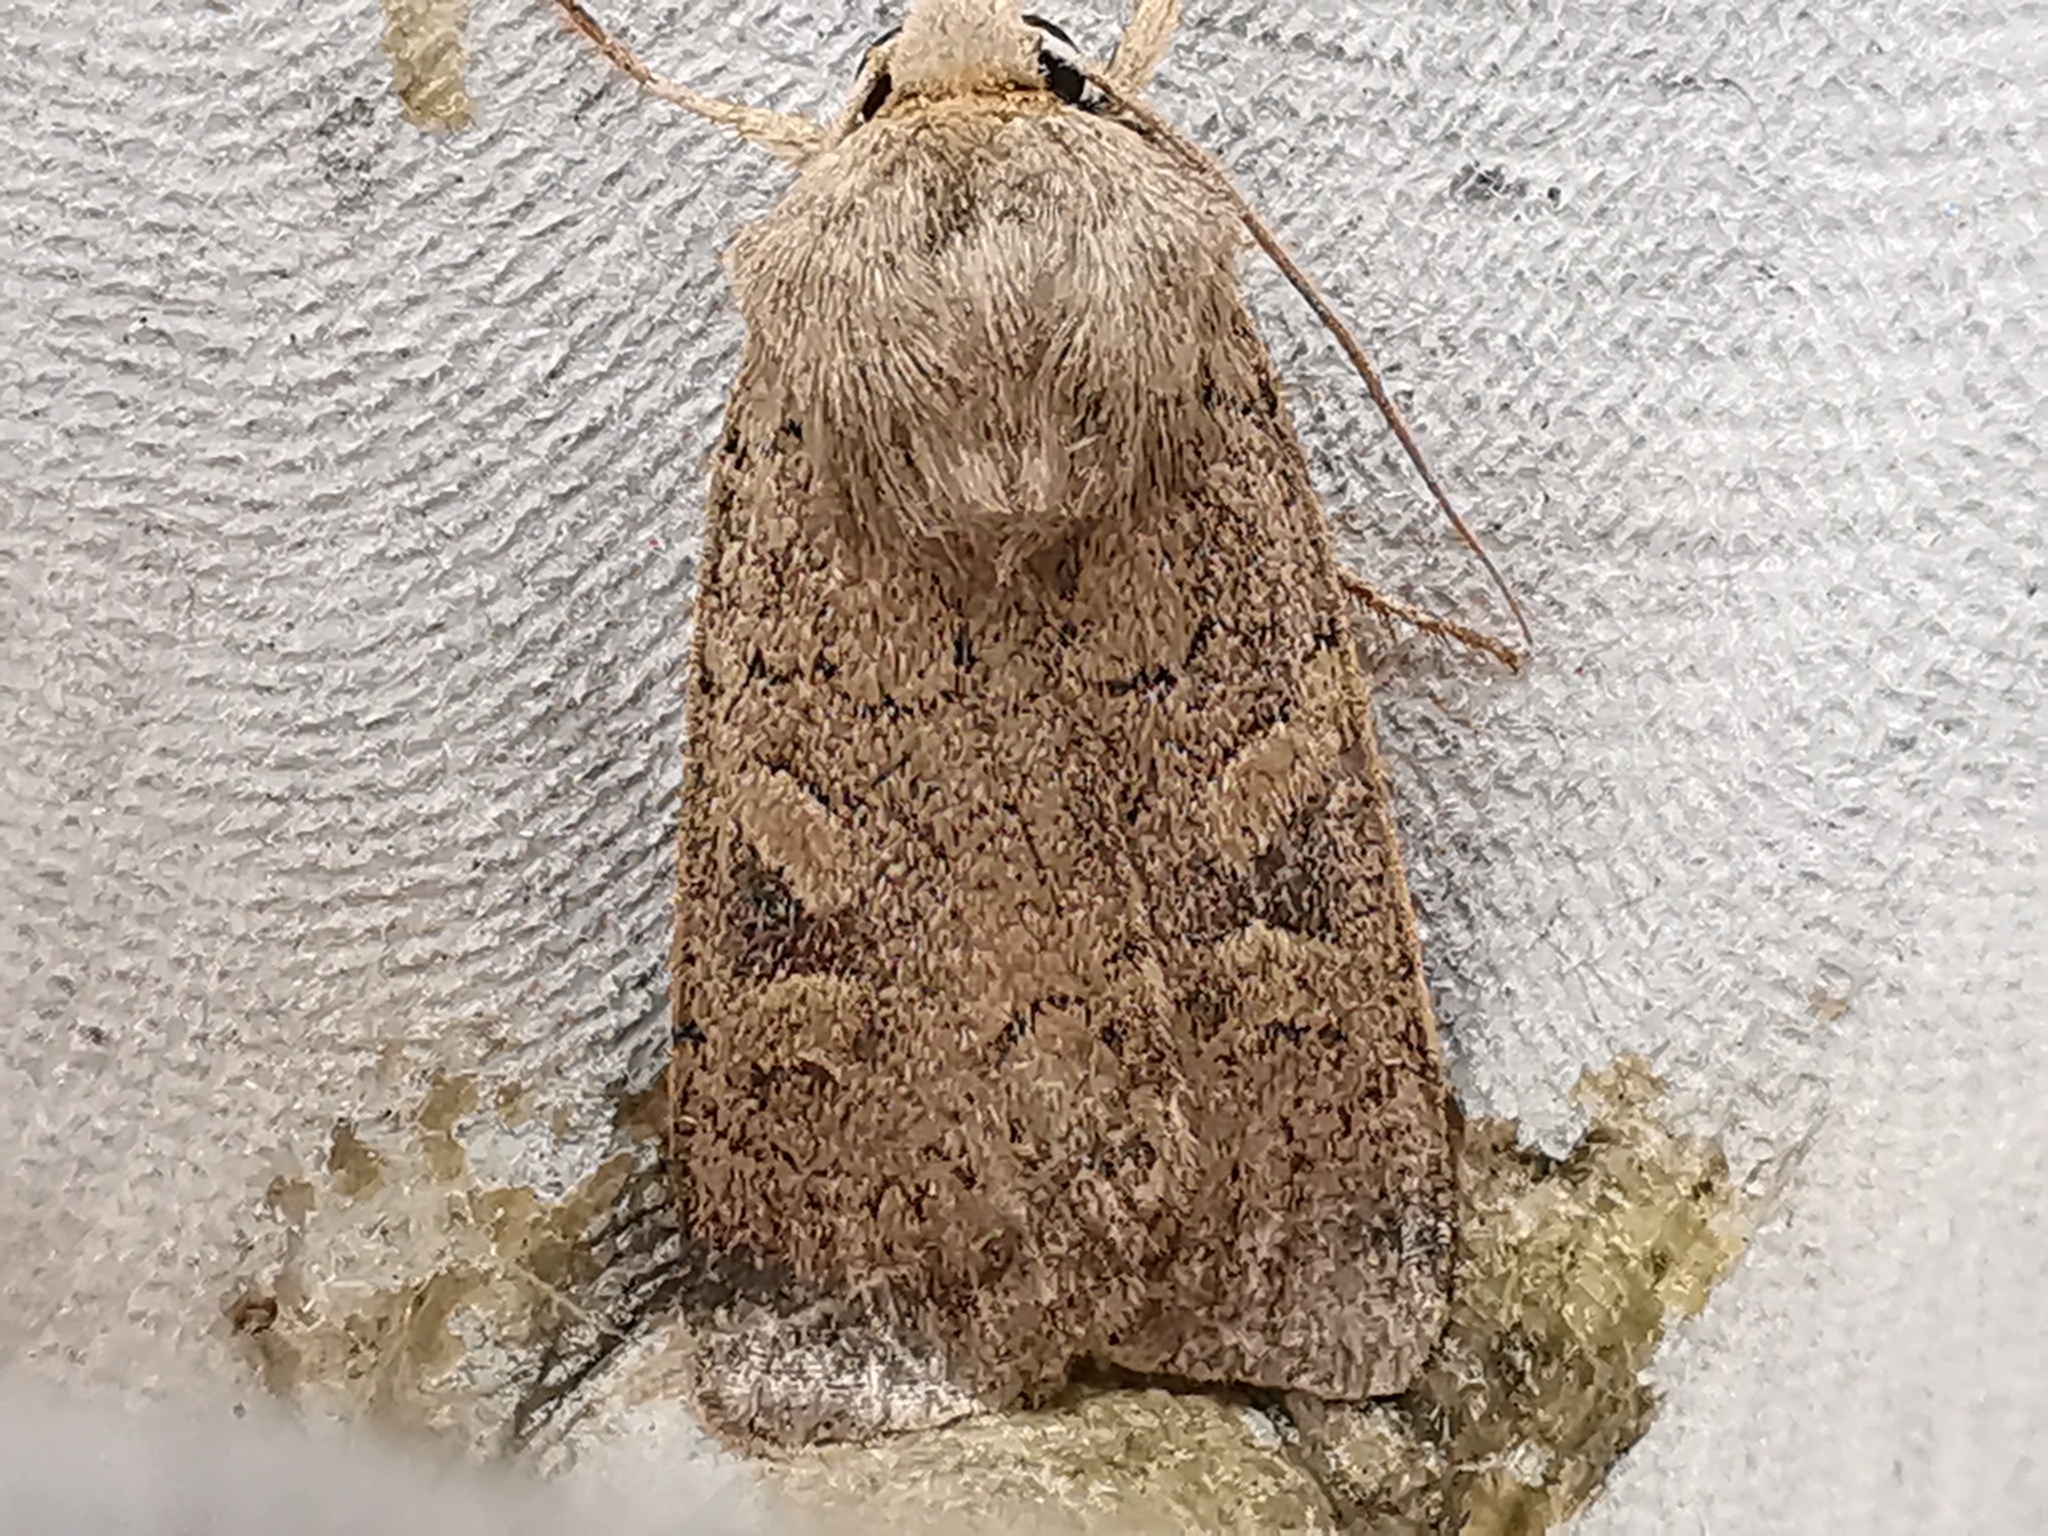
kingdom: Animalia
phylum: Arthropoda
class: Insecta
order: Lepidoptera
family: Noctuidae
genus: Xestia
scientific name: Xestia xanthographa
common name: Square-spot rustic
